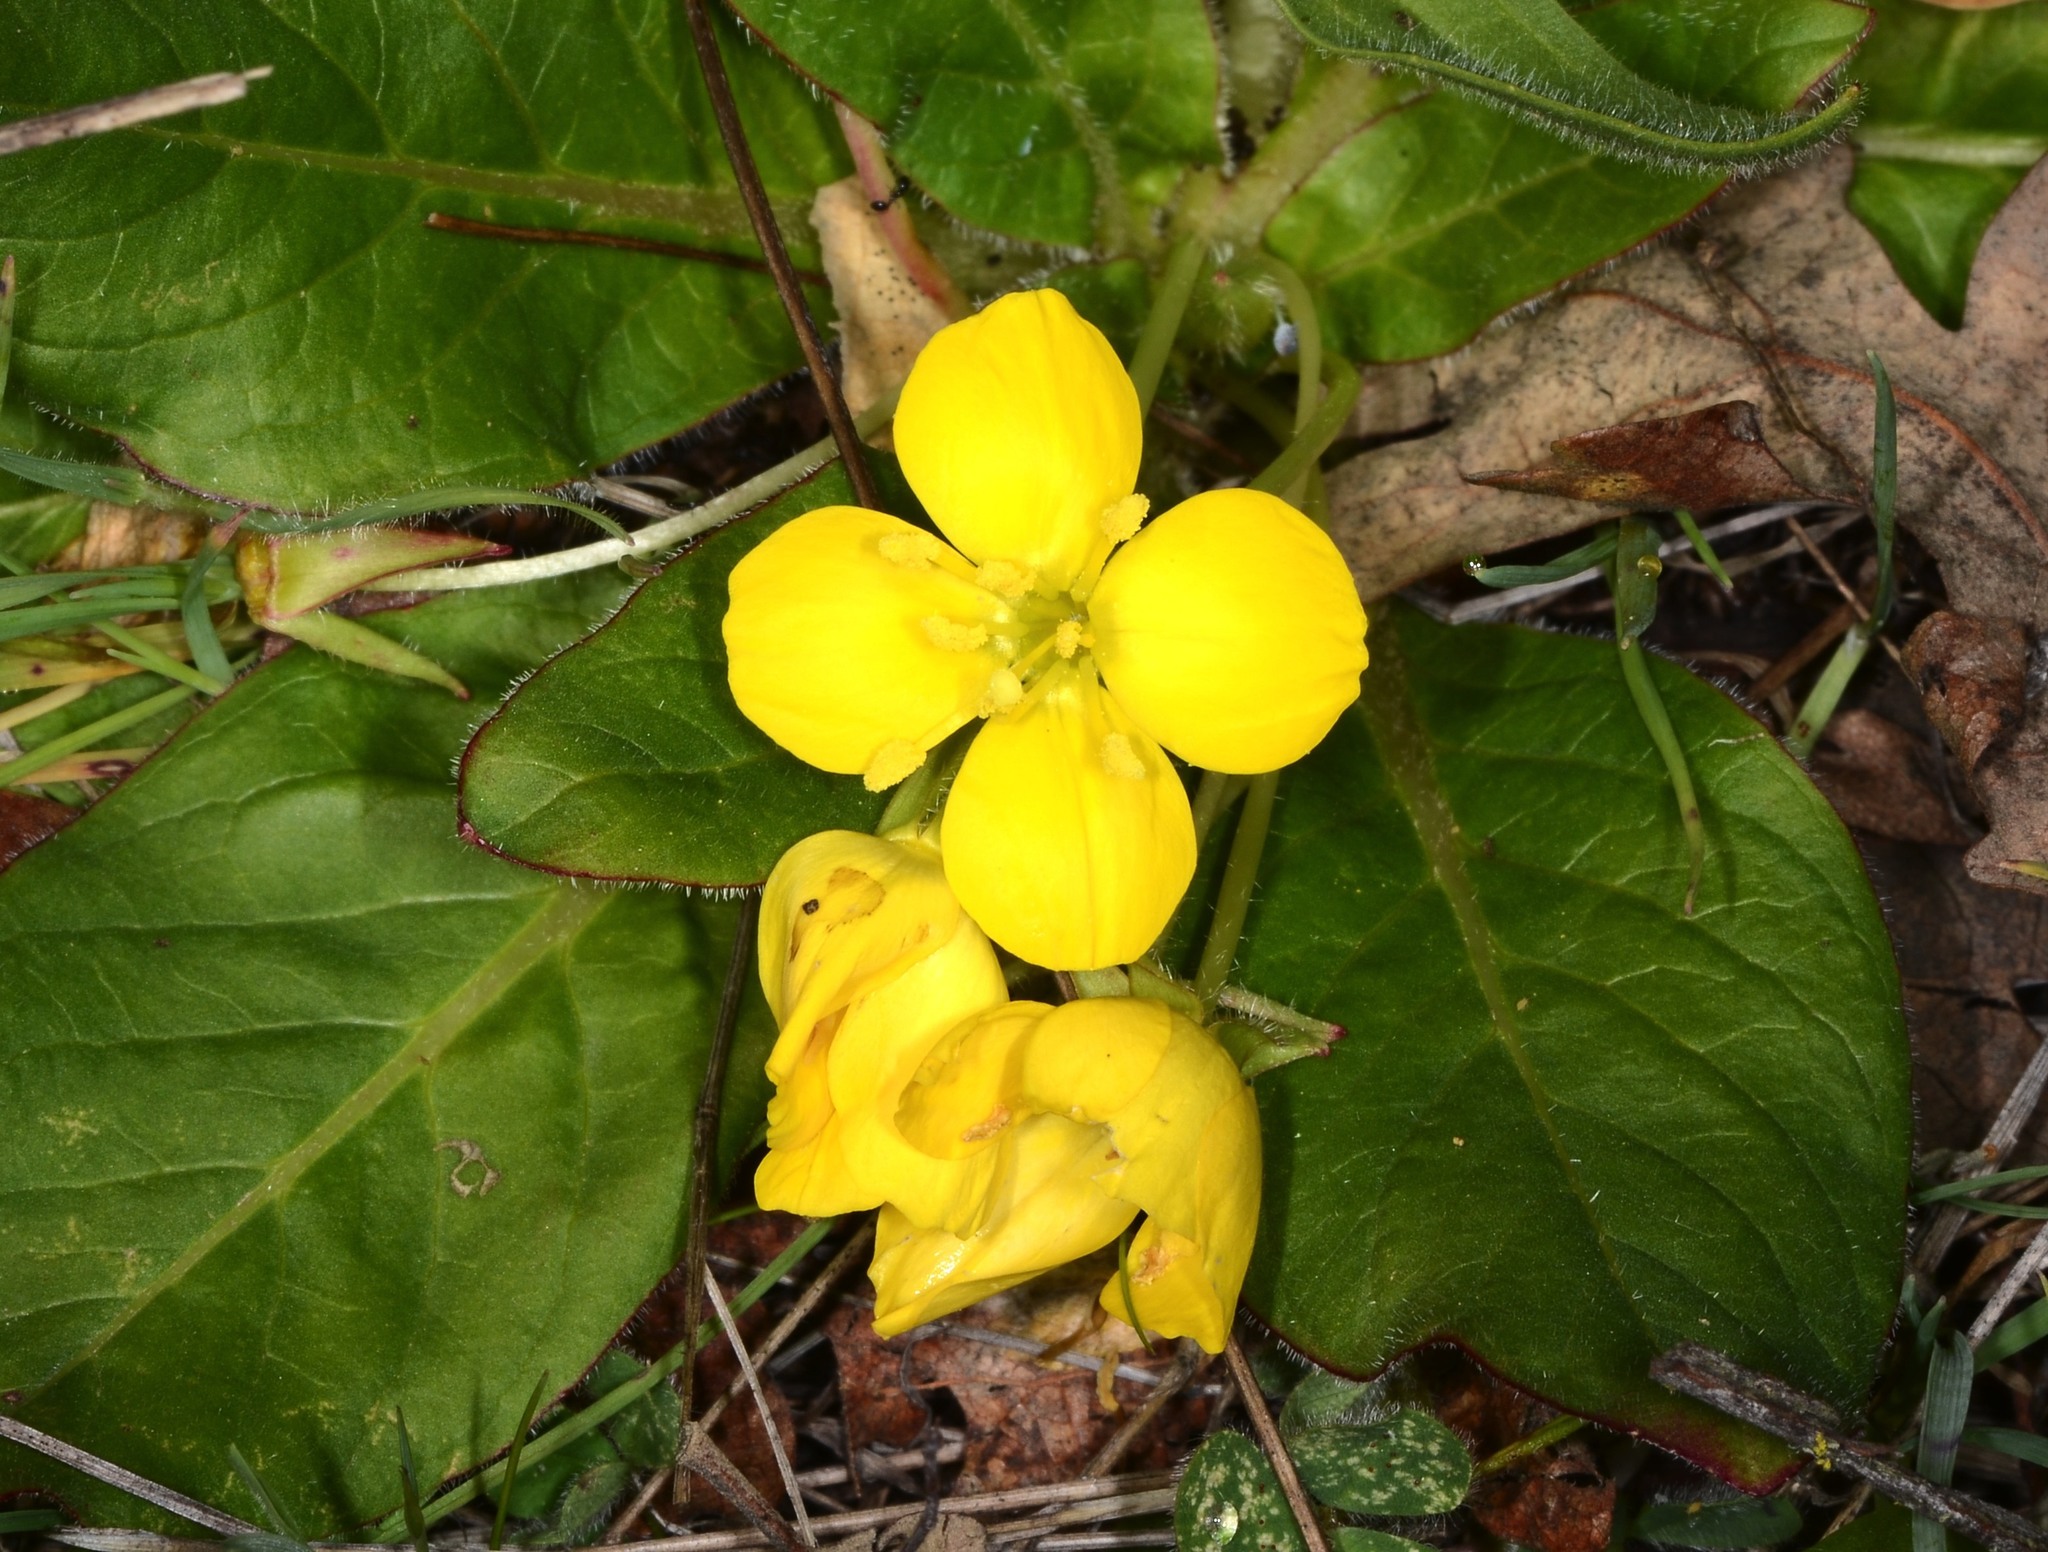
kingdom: Plantae
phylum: Tracheophyta
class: Magnoliopsida
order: Myrtales
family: Onagraceae
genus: Taraxia
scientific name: Taraxia ovata
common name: Goldeneggs
